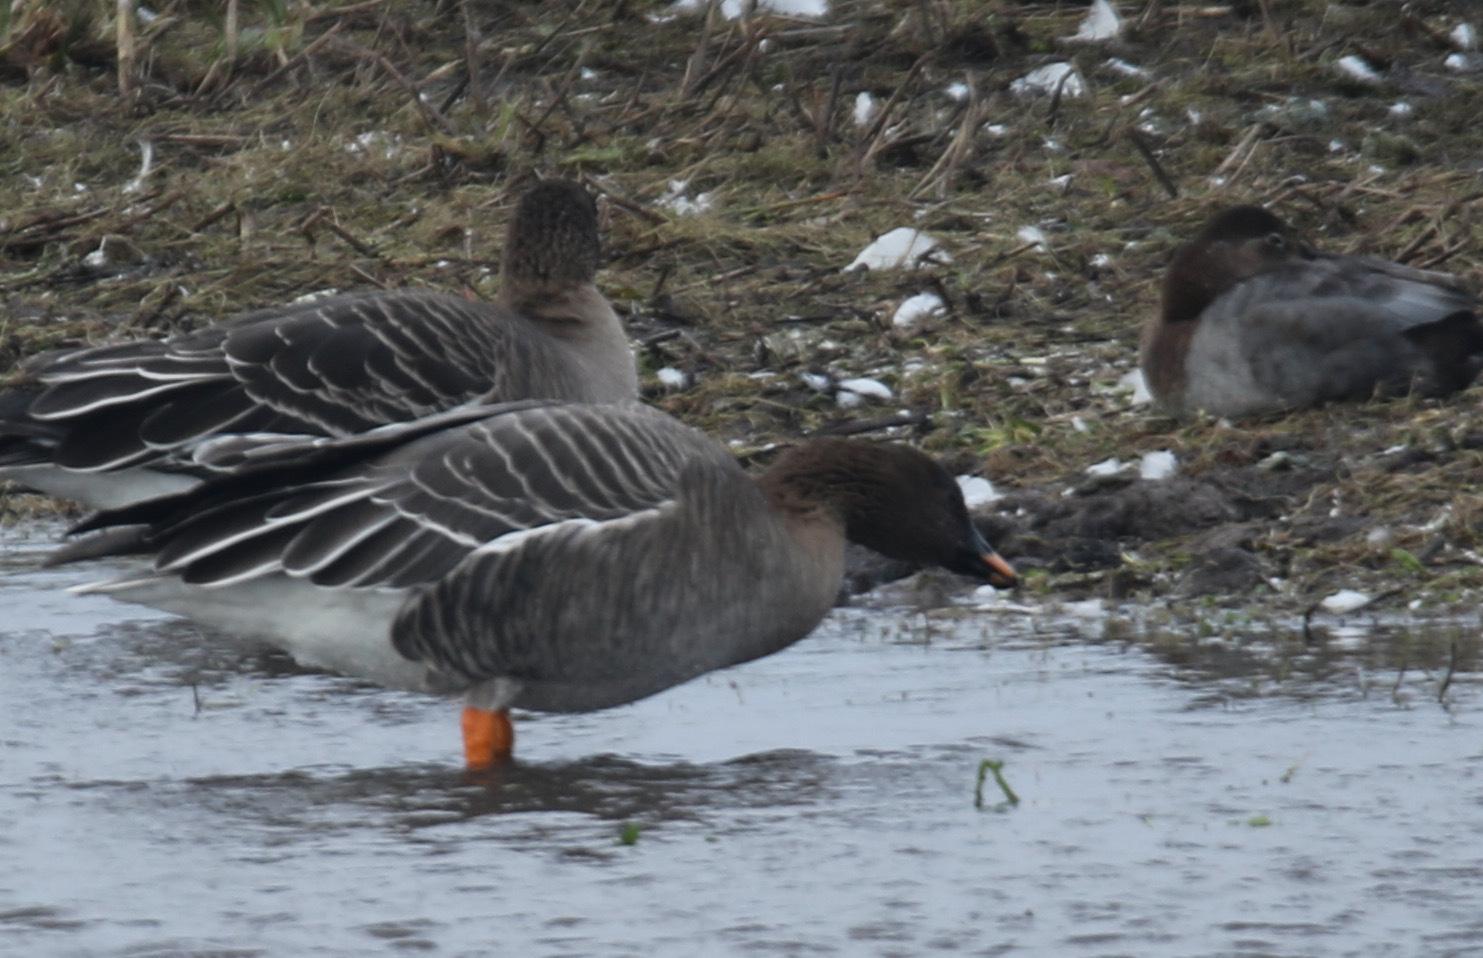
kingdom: Animalia
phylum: Chordata
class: Aves
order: Anseriformes
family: Anatidae
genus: Anser
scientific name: Anser serrirostris
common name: Tundra bean goose
